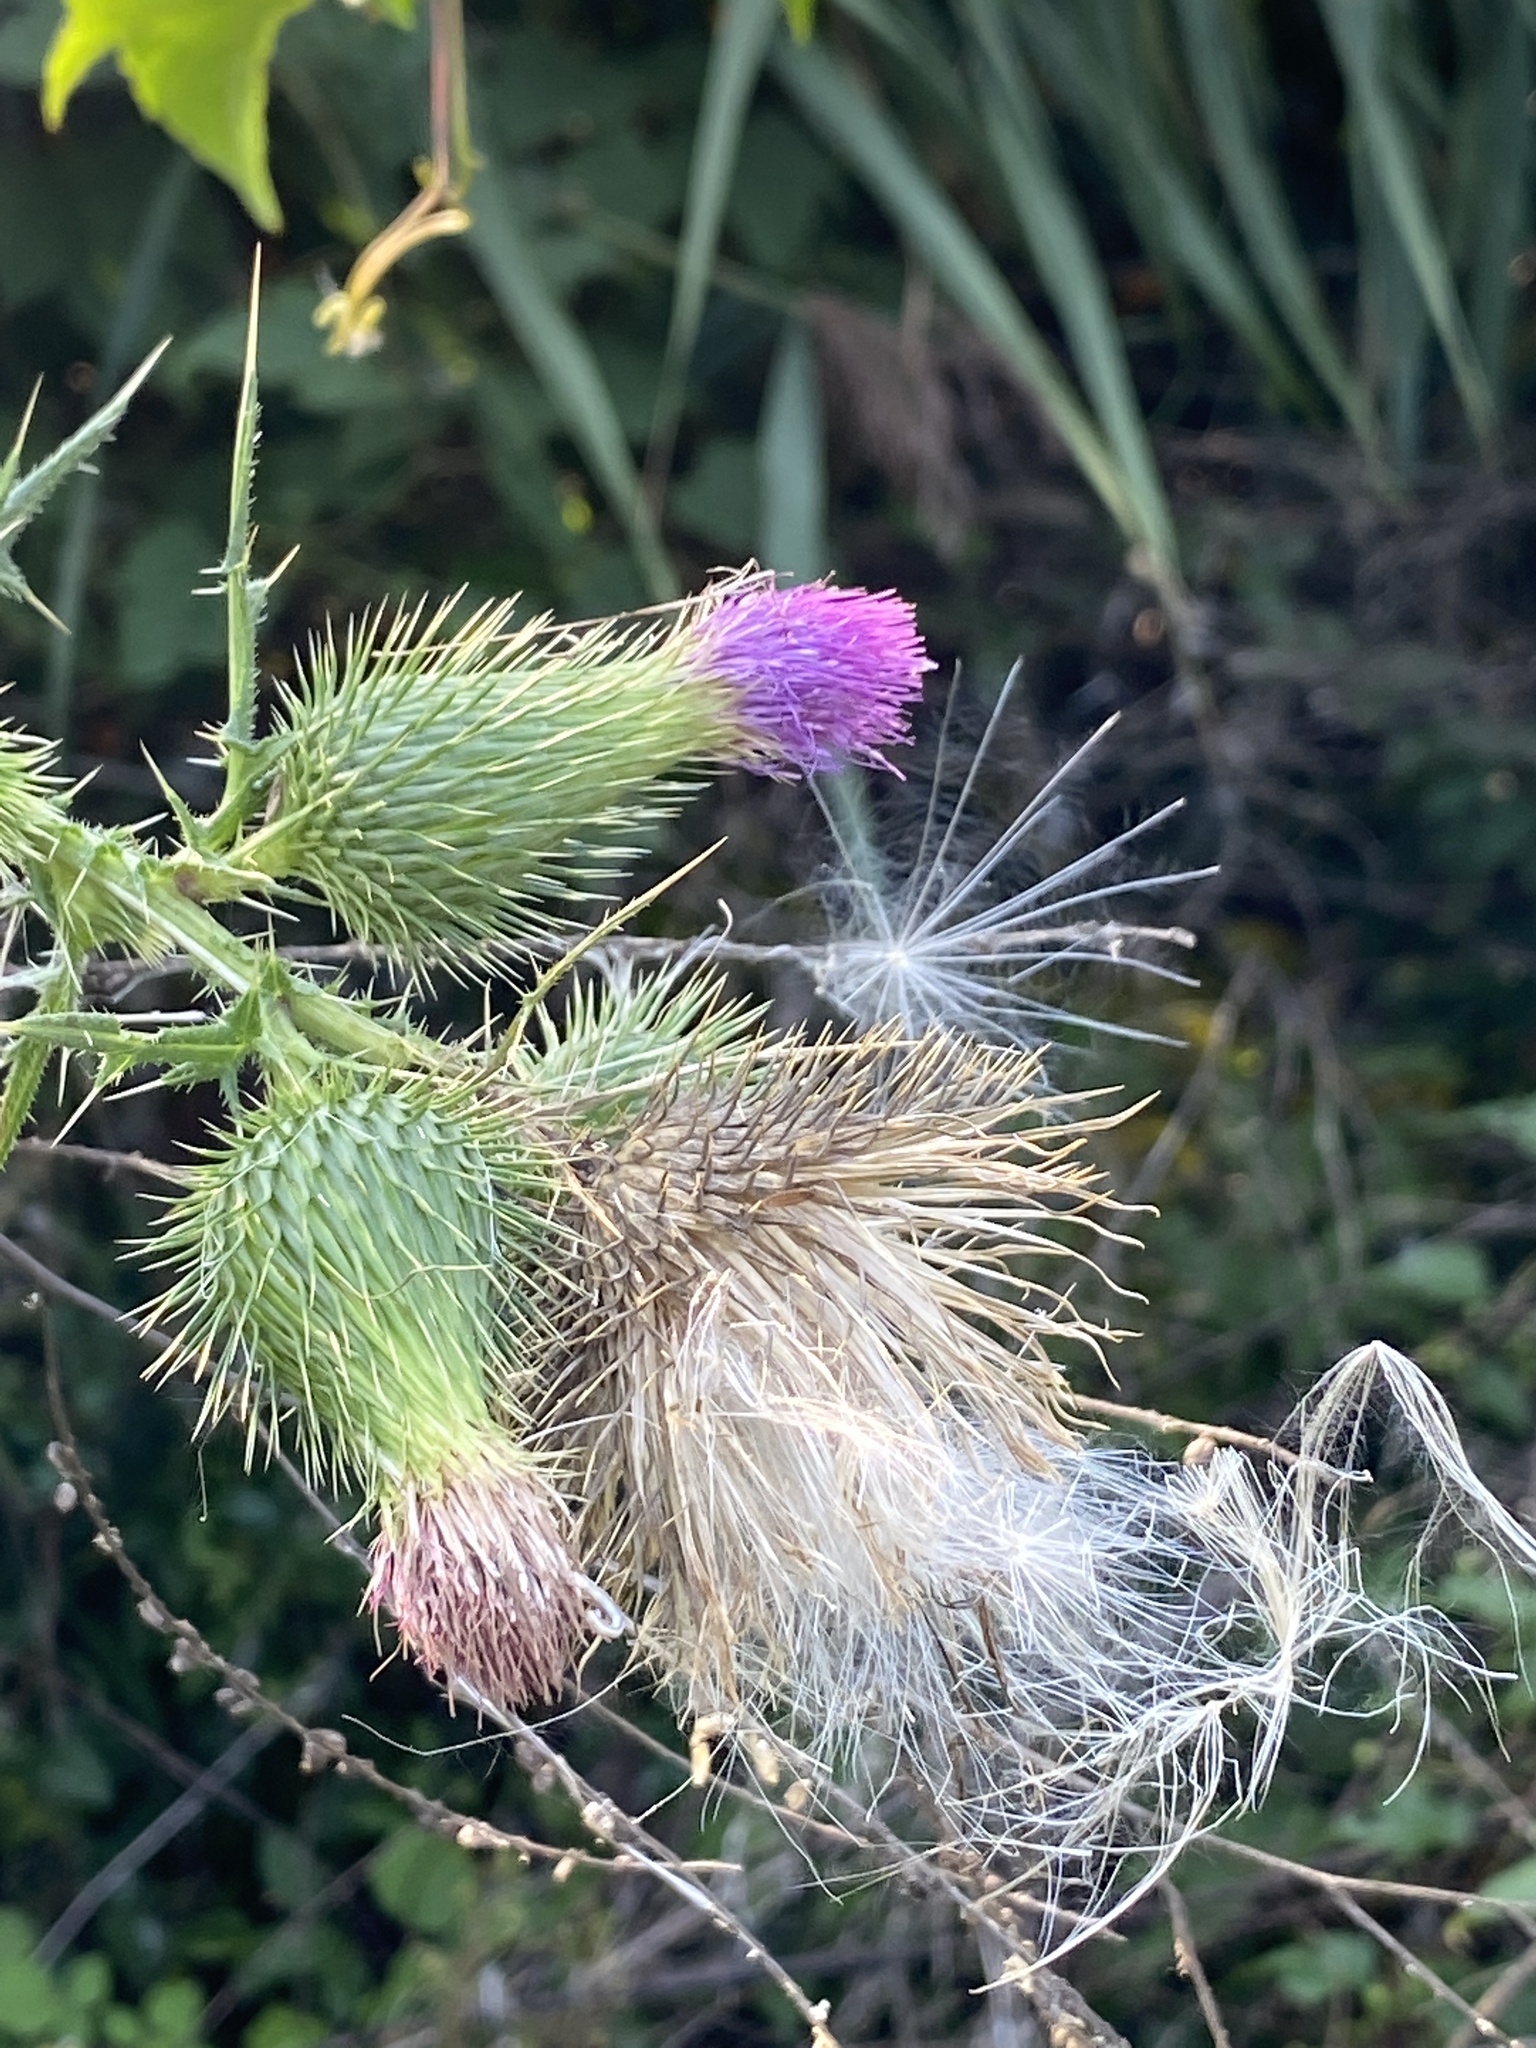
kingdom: Plantae
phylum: Tracheophyta
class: Magnoliopsida
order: Asterales
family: Asteraceae
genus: Cirsium
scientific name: Cirsium vulgare
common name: Bull thistle
